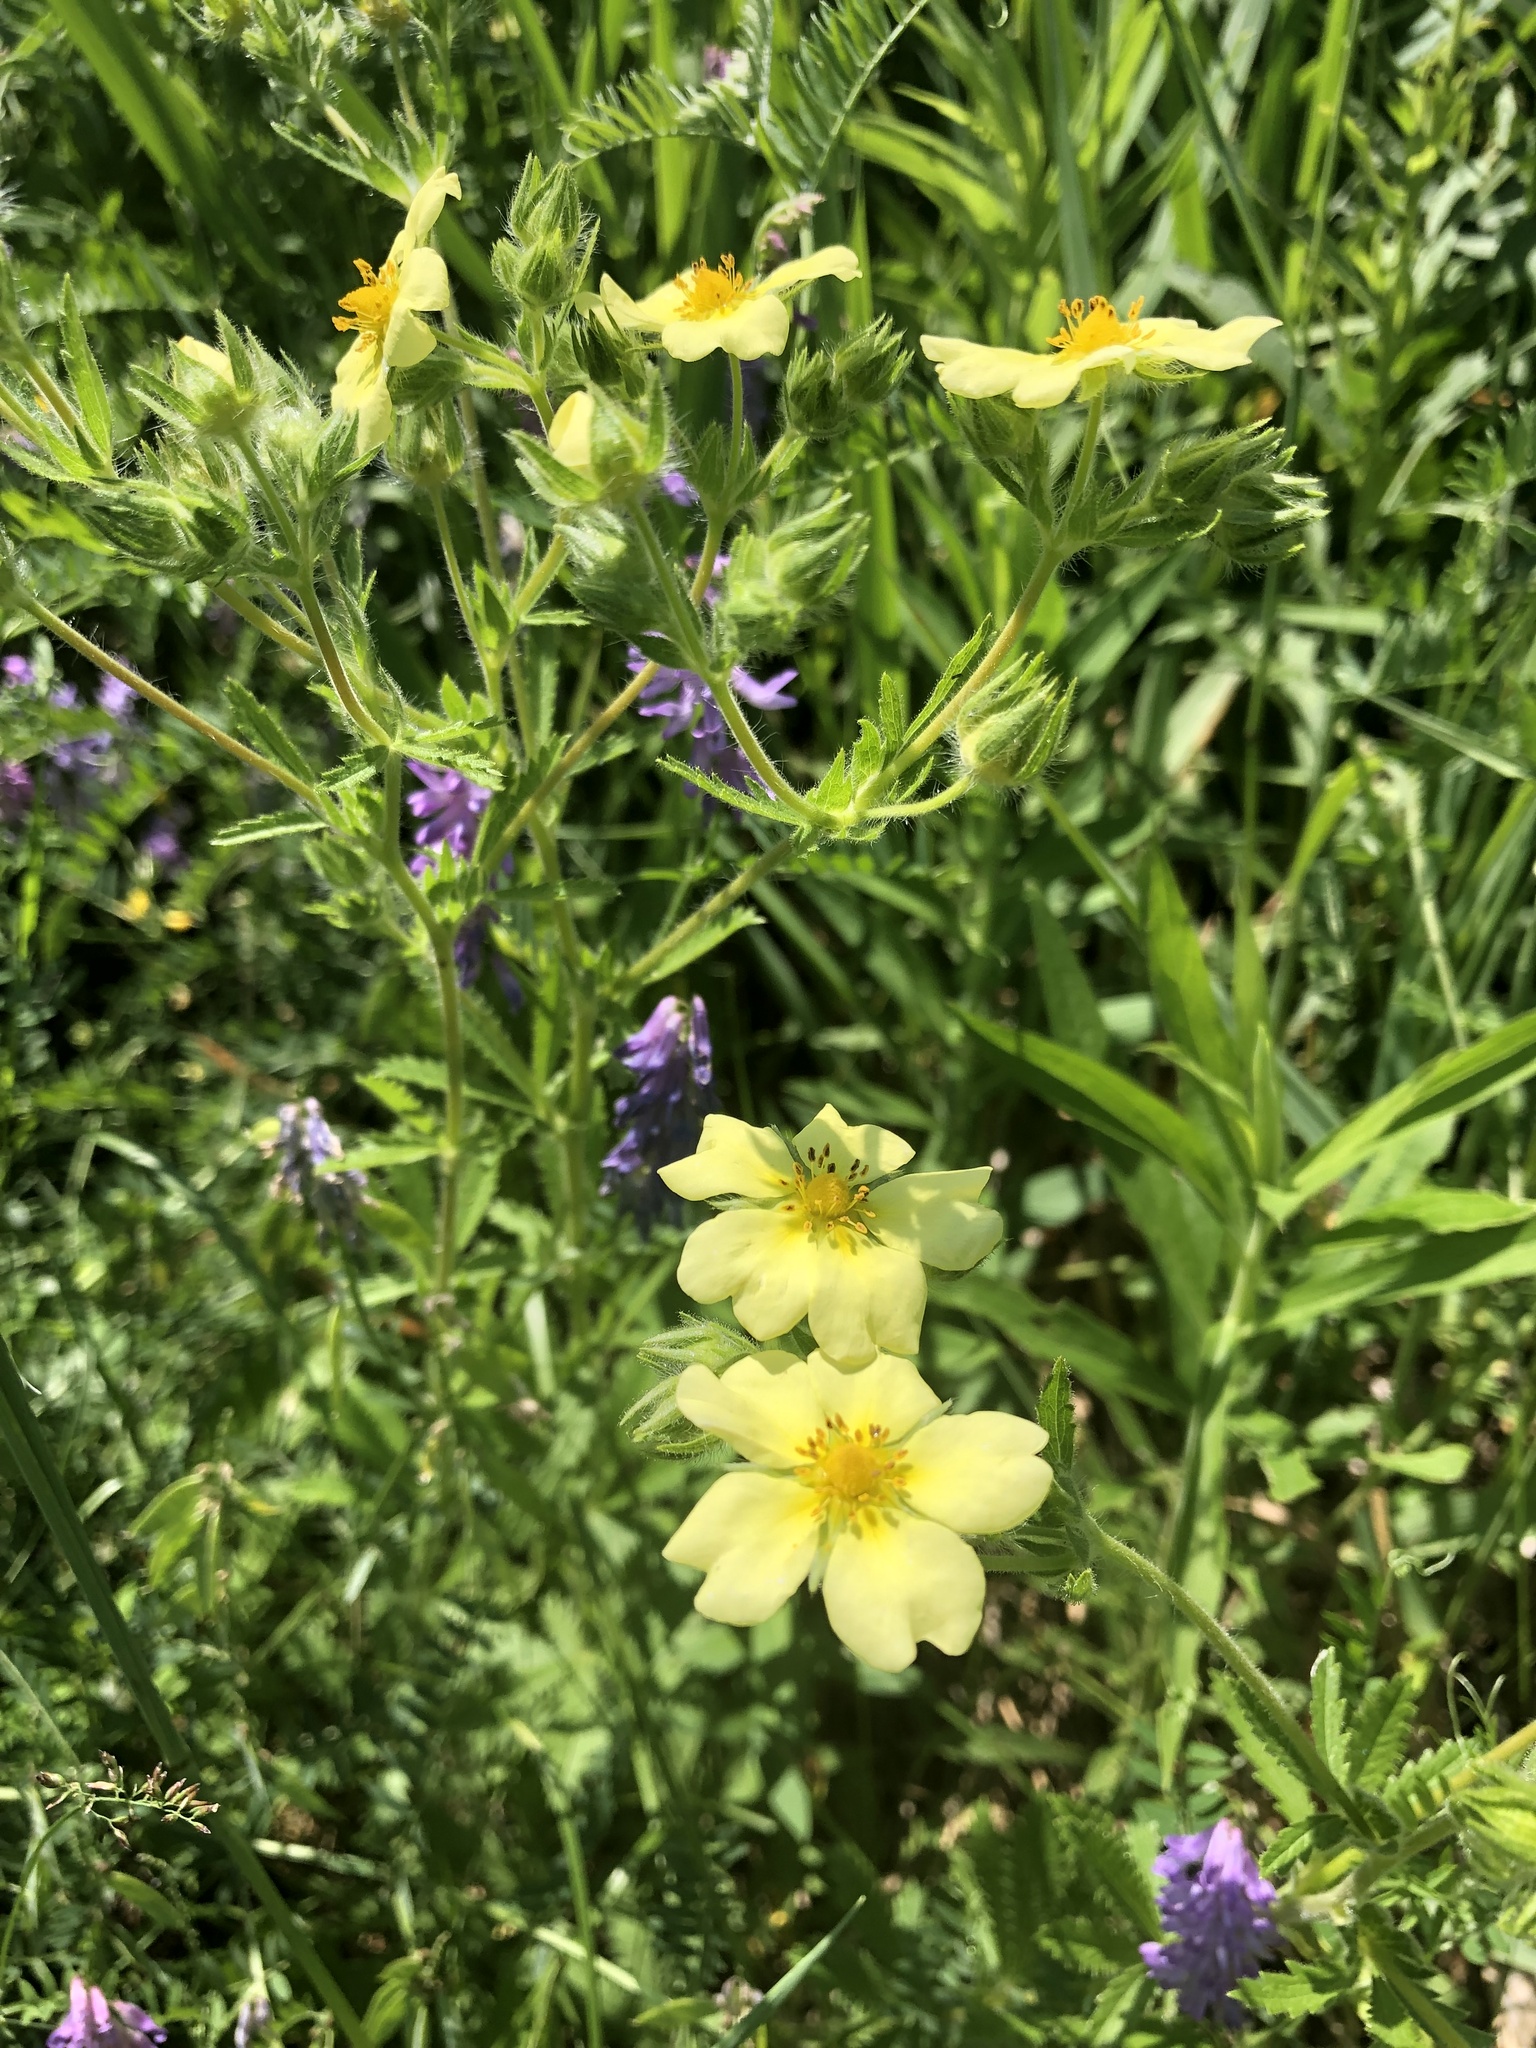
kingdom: Plantae
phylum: Tracheophyta
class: Magnoliopsida
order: Rosales
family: Rosaceae
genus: Potentilla
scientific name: Potentilla recta
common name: Sulphur cinquefoil
